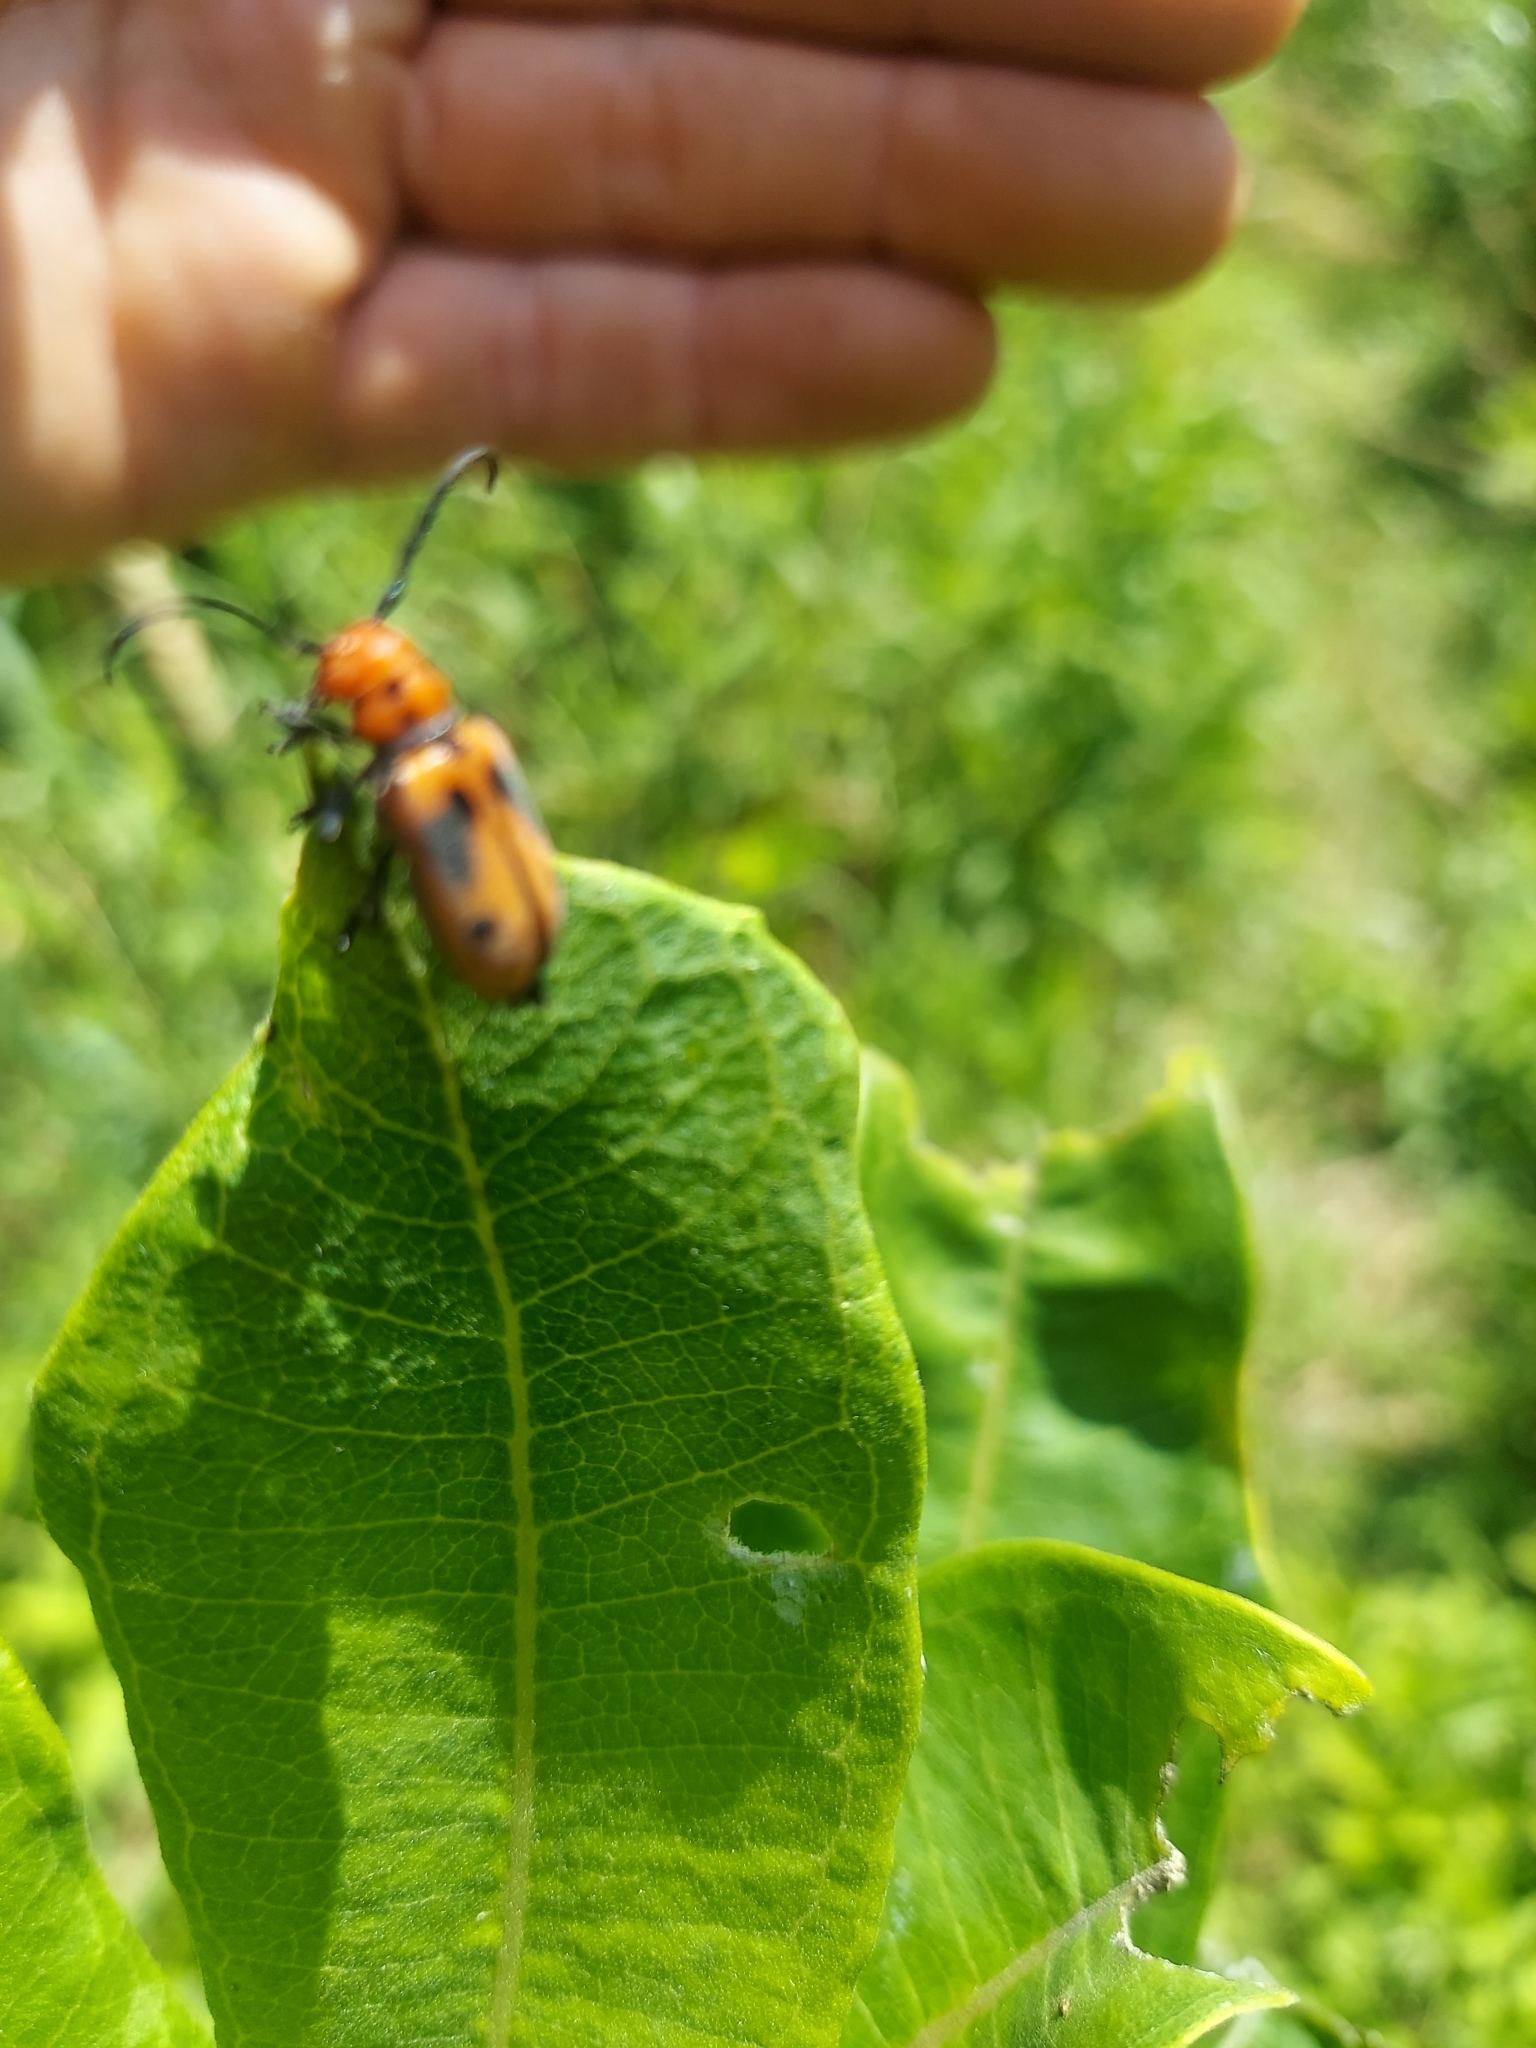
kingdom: Animalia
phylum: Arthropoda
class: Insecta
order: Coleoptera
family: Cerambycidae
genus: Tetraopes
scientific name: Tetraopes tetrophthalmus
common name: Red milkweed beetle
